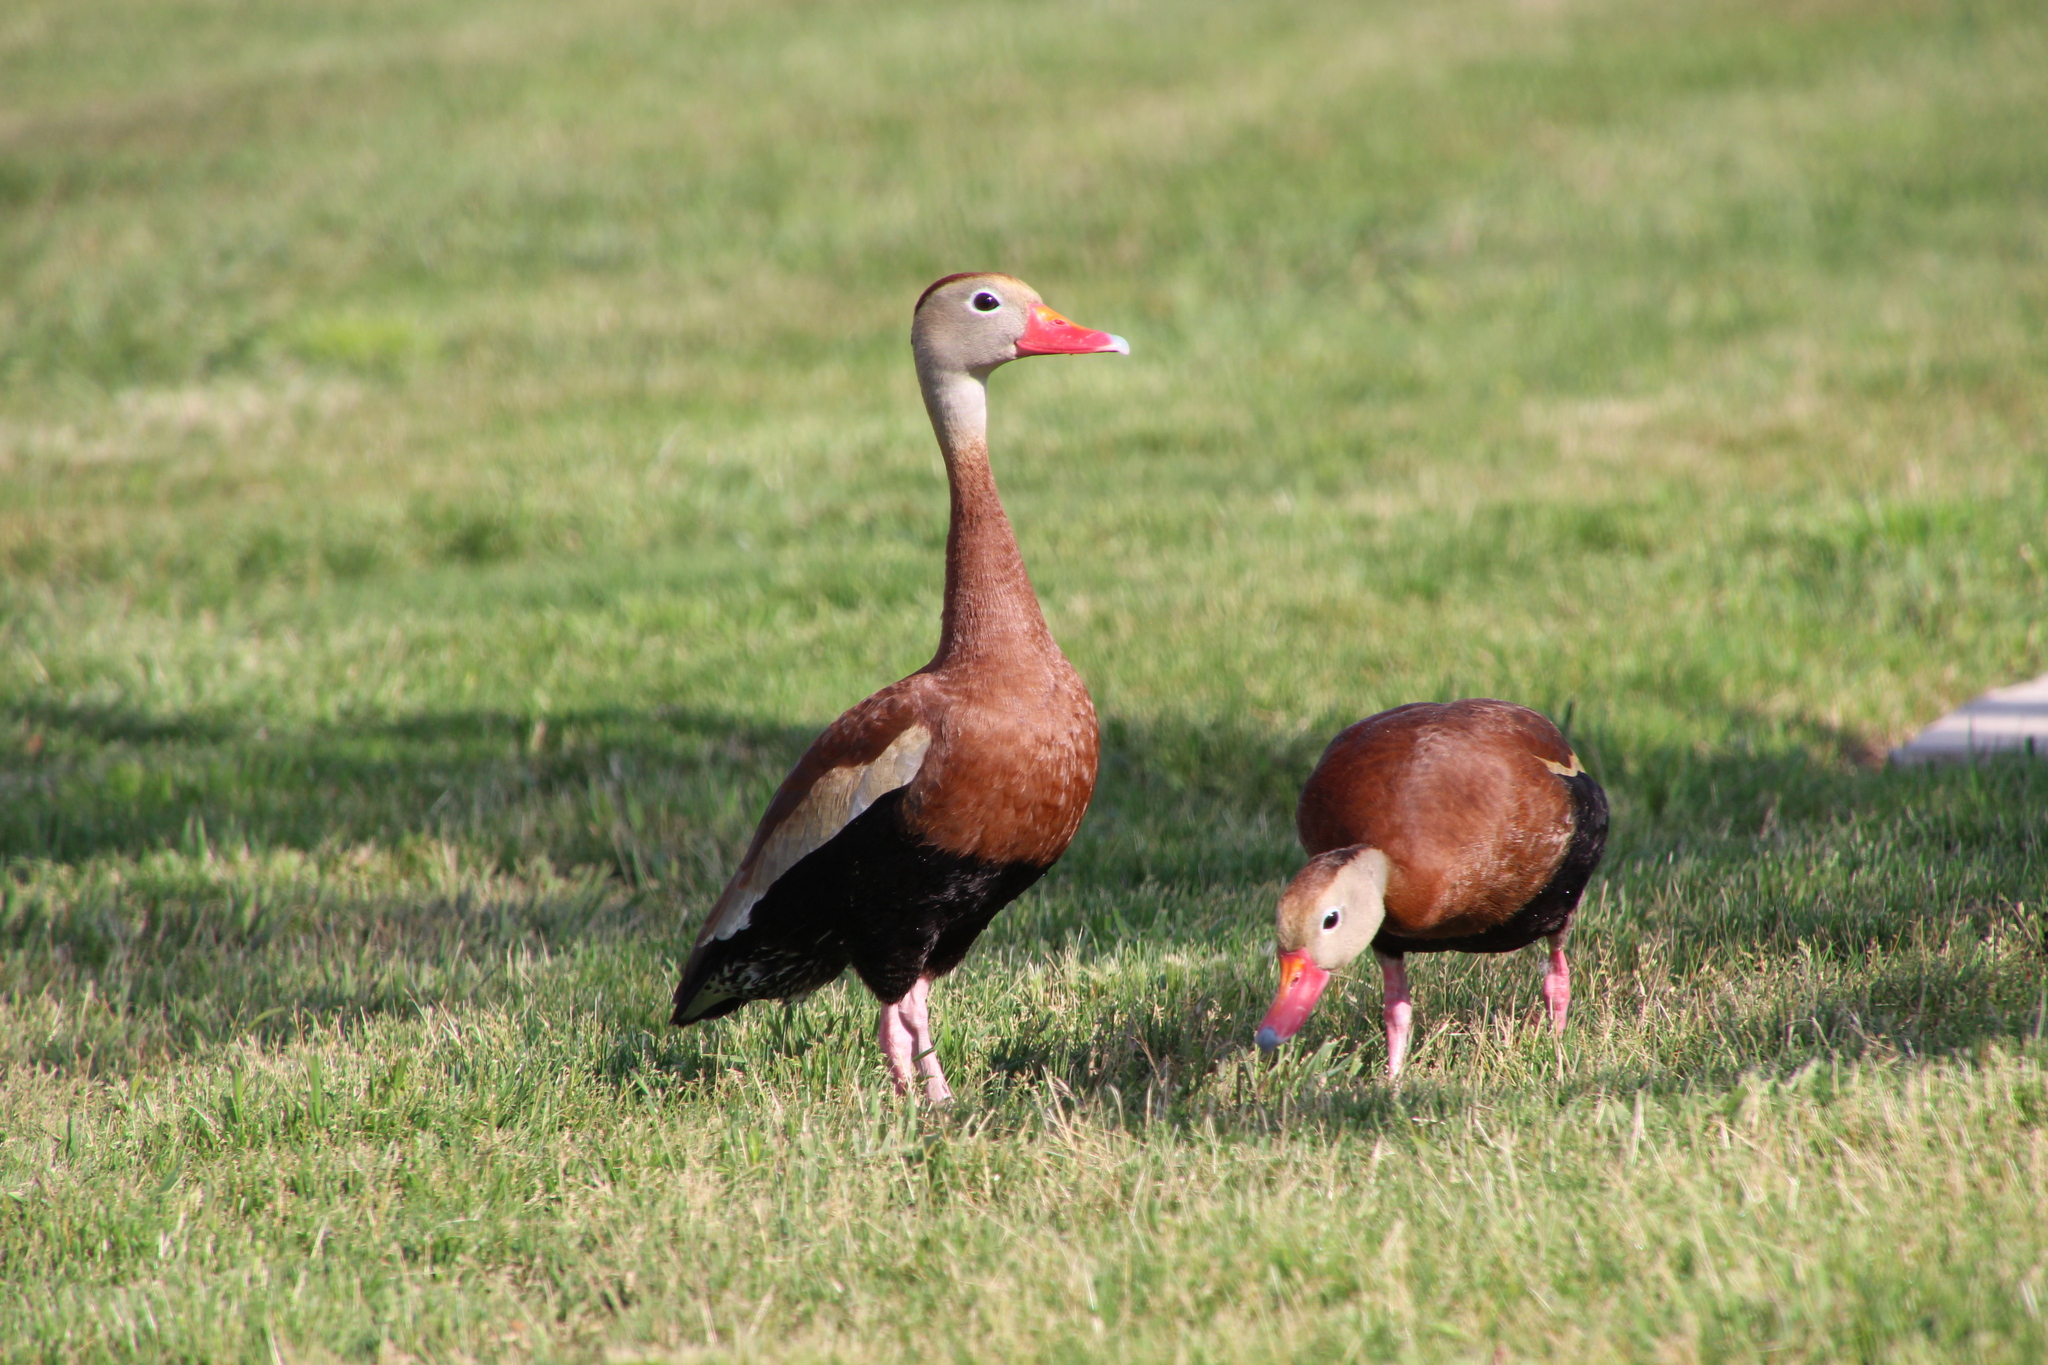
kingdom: Animalia
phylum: Chordata
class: Aves
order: Anseriformes
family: Anatidae
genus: Dendrocygna
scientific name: Dendrocygna autumnalis
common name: Black-bellied whistling duck
